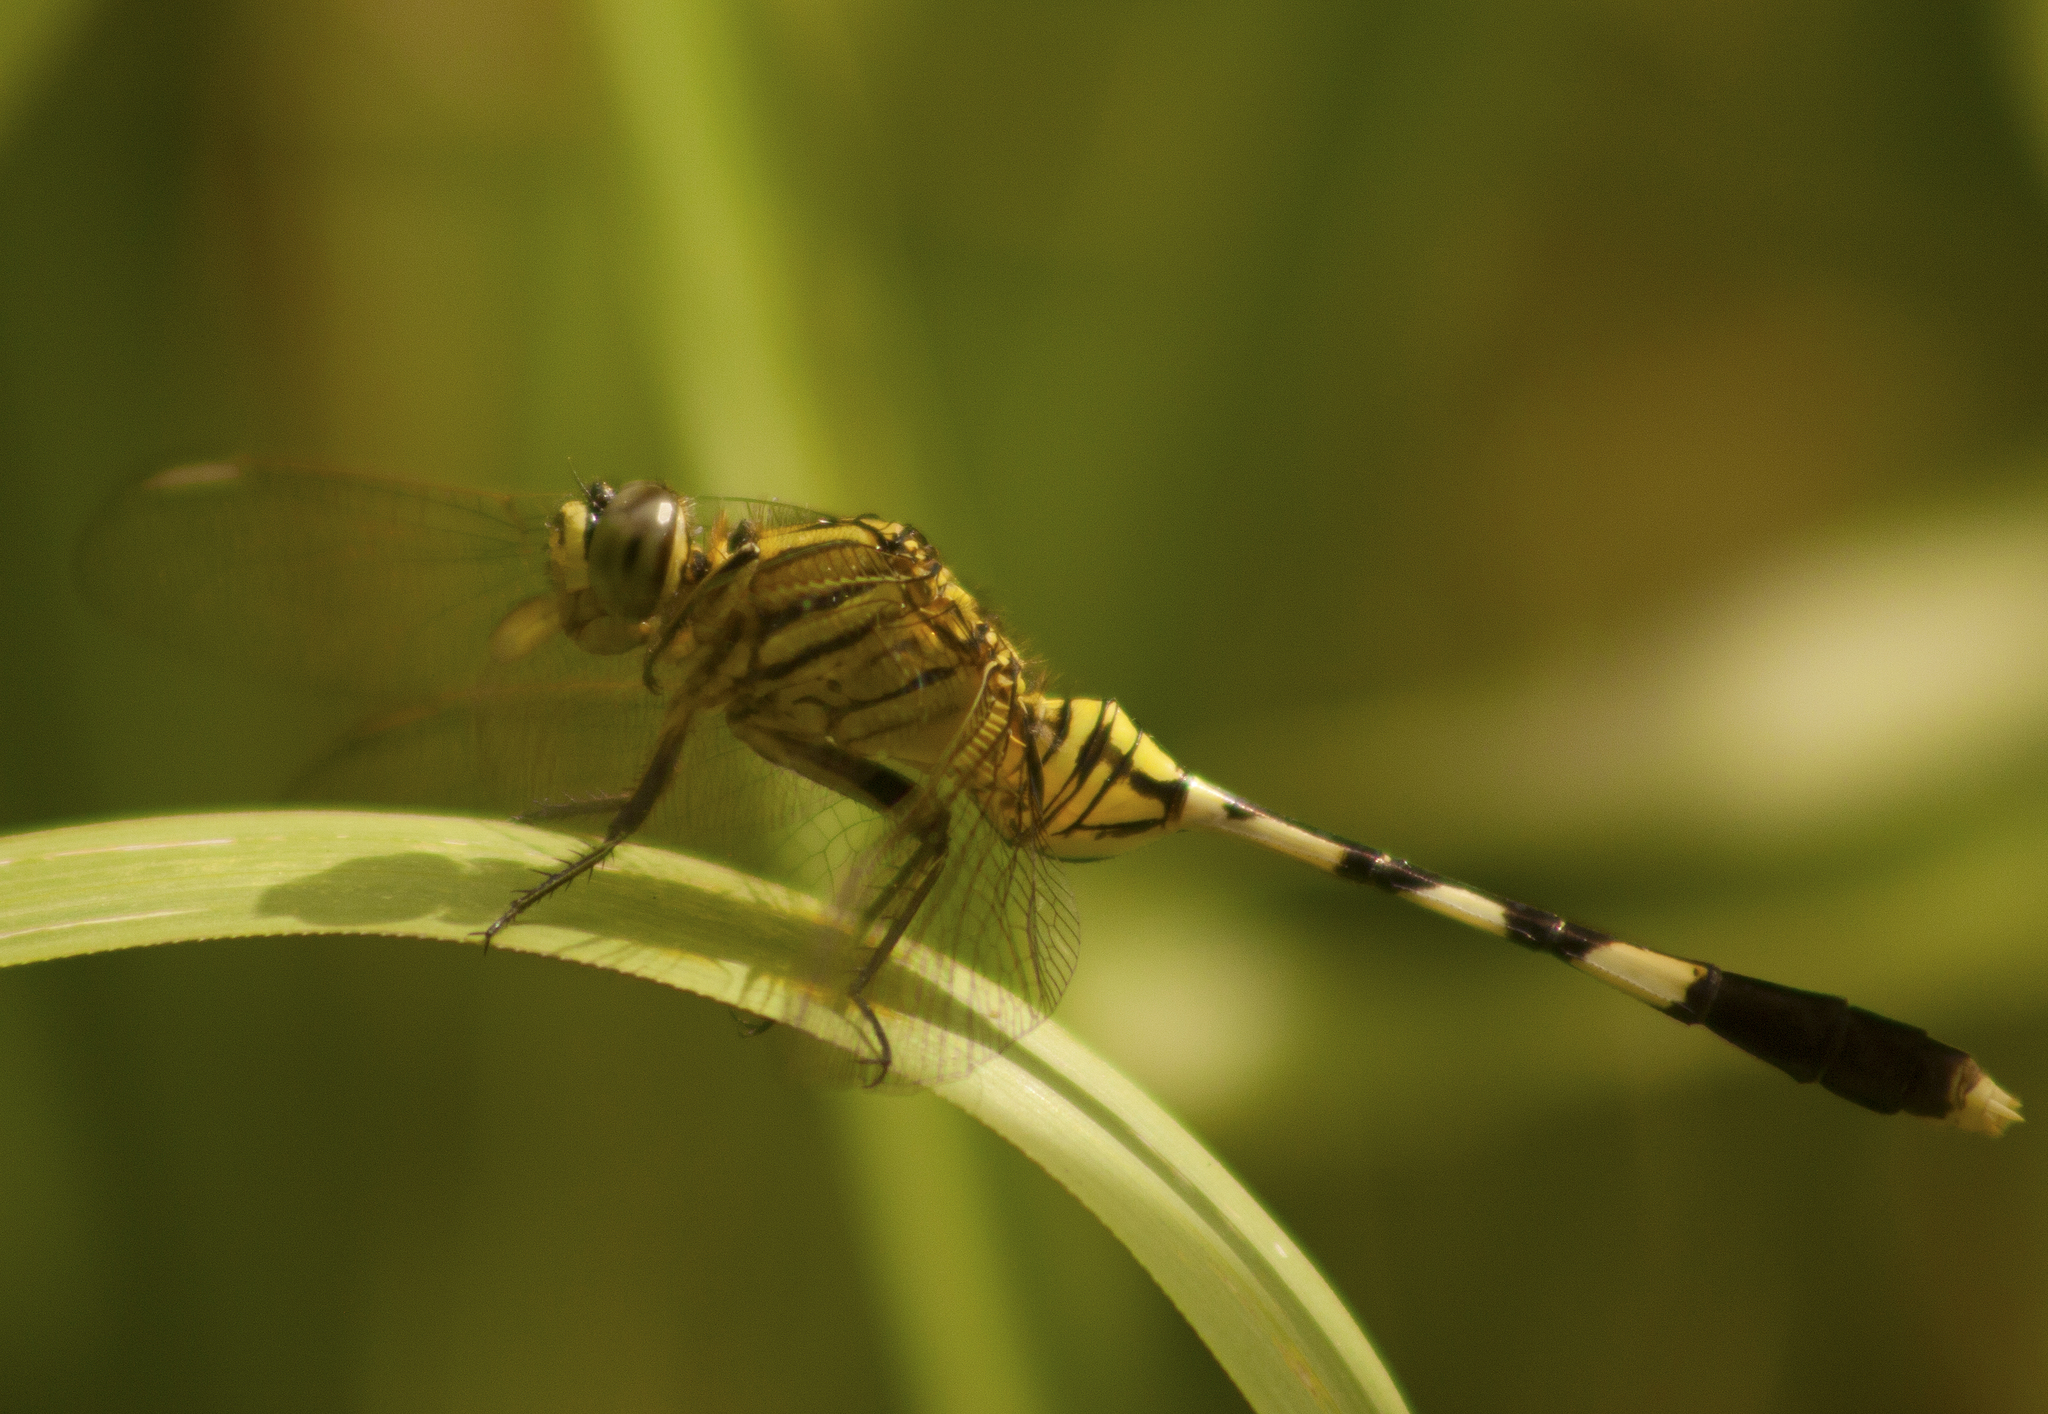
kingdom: Animalia
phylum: Arthropoda
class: Insecta
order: Odonata
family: Libellulidae
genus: Orthetrum
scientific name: Orthetrum sabina
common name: Slender skimmer
